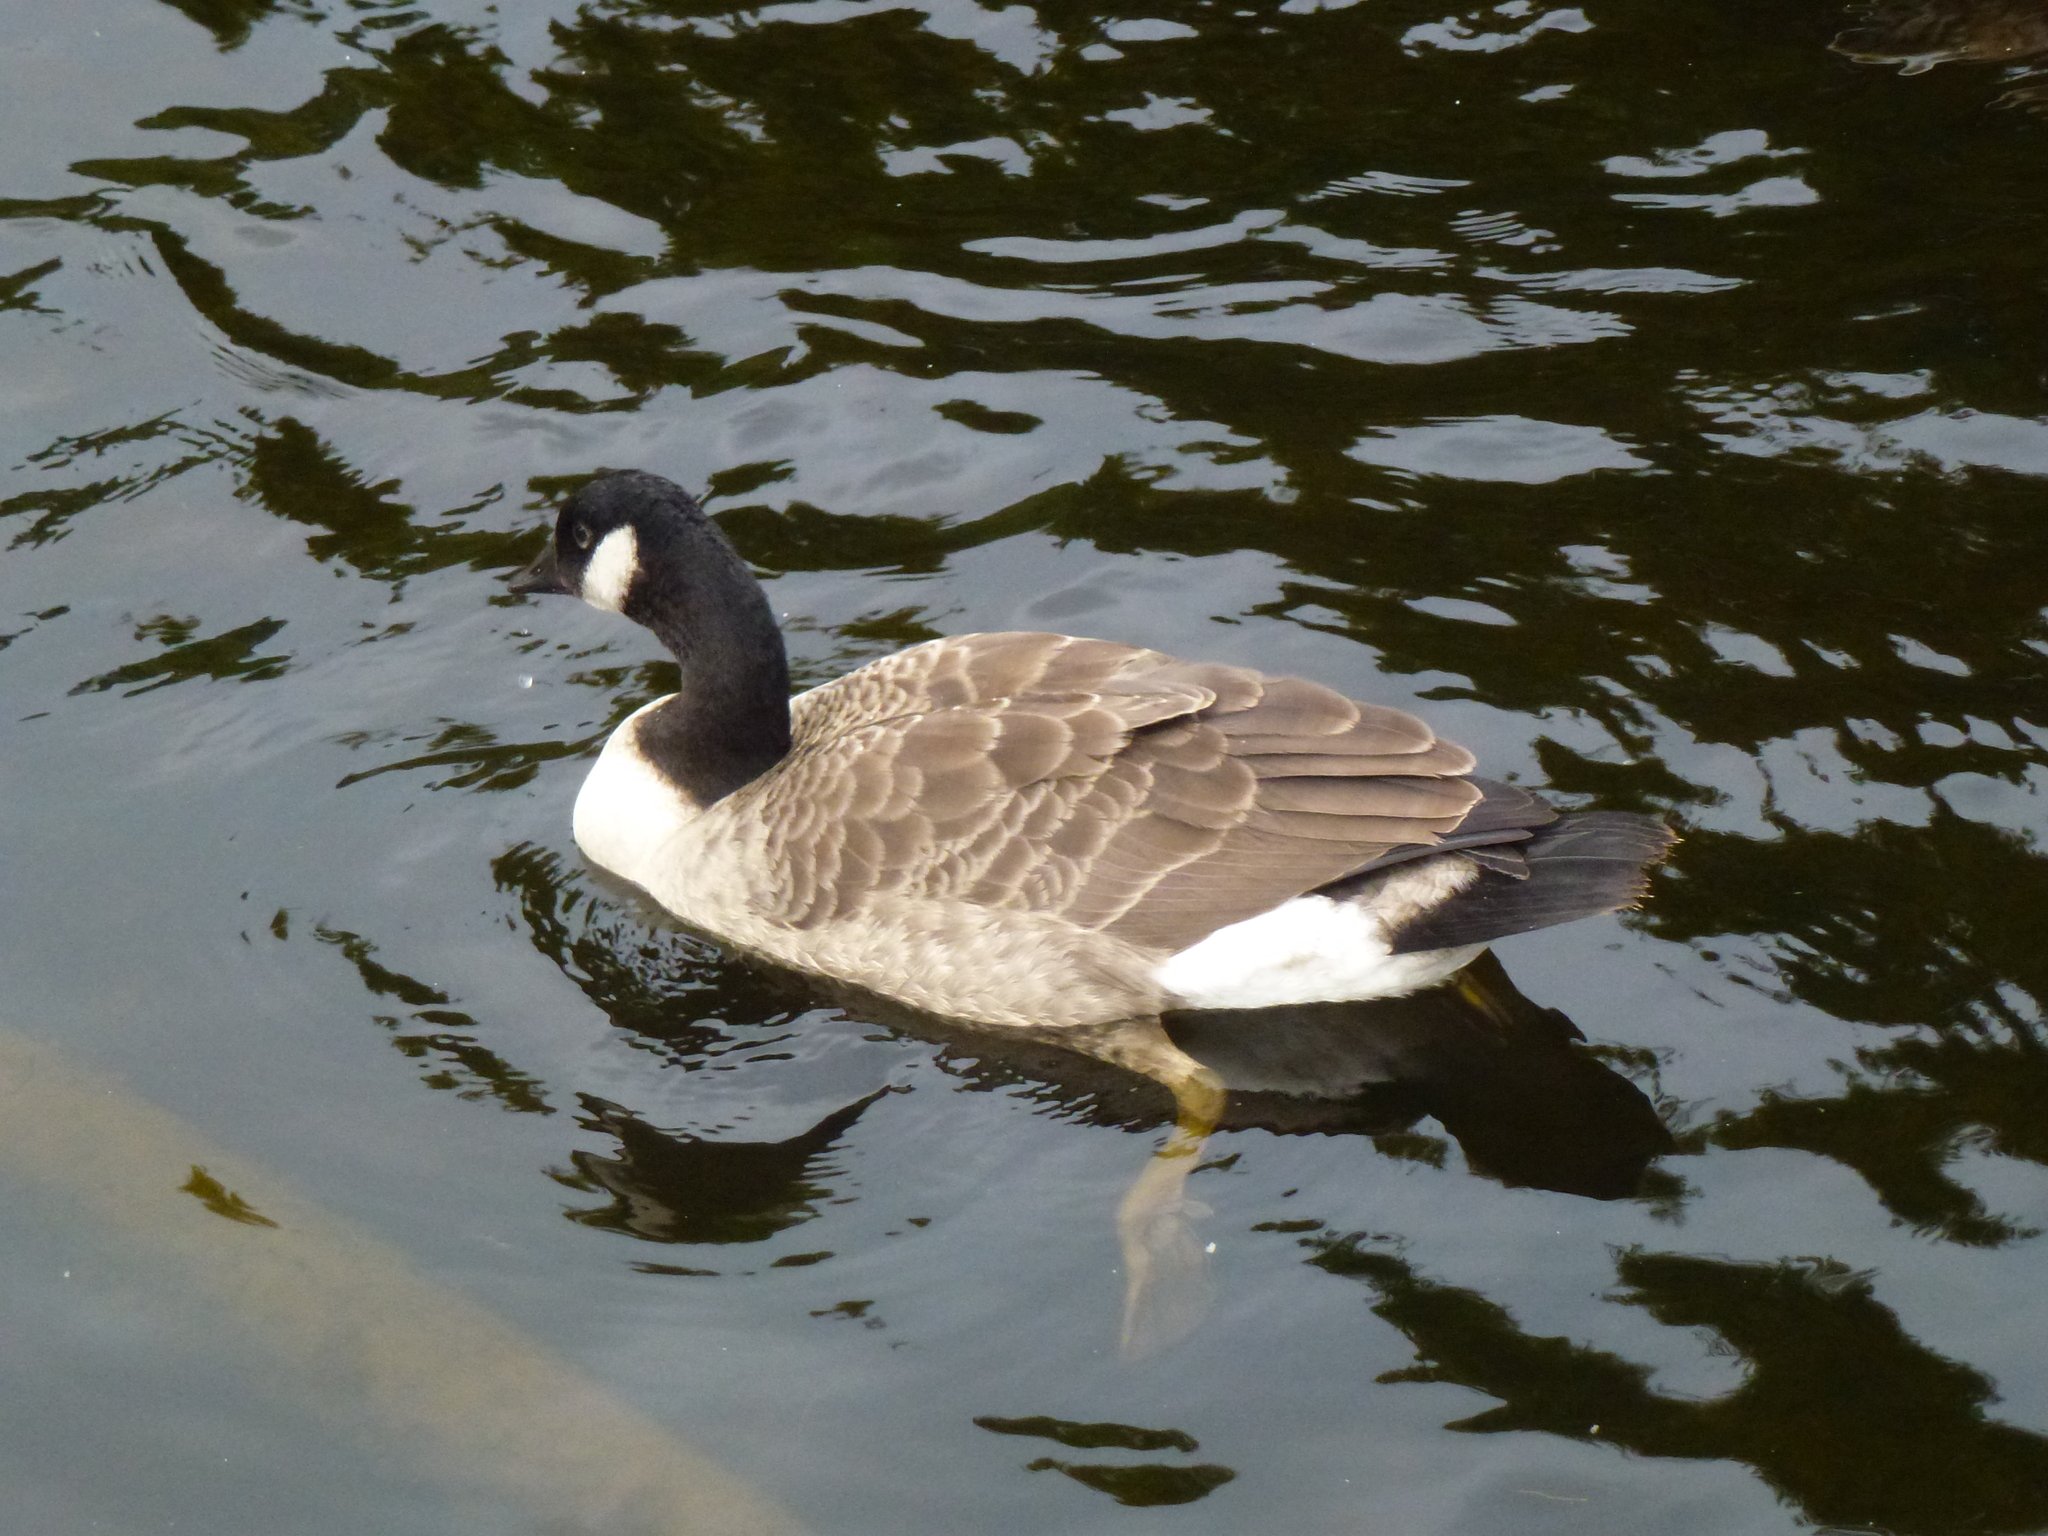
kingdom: Animalia
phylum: Chordata
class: Aves
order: Anseriformes
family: Anatidae
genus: Branta
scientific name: Branta canadensis
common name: Canada goose
